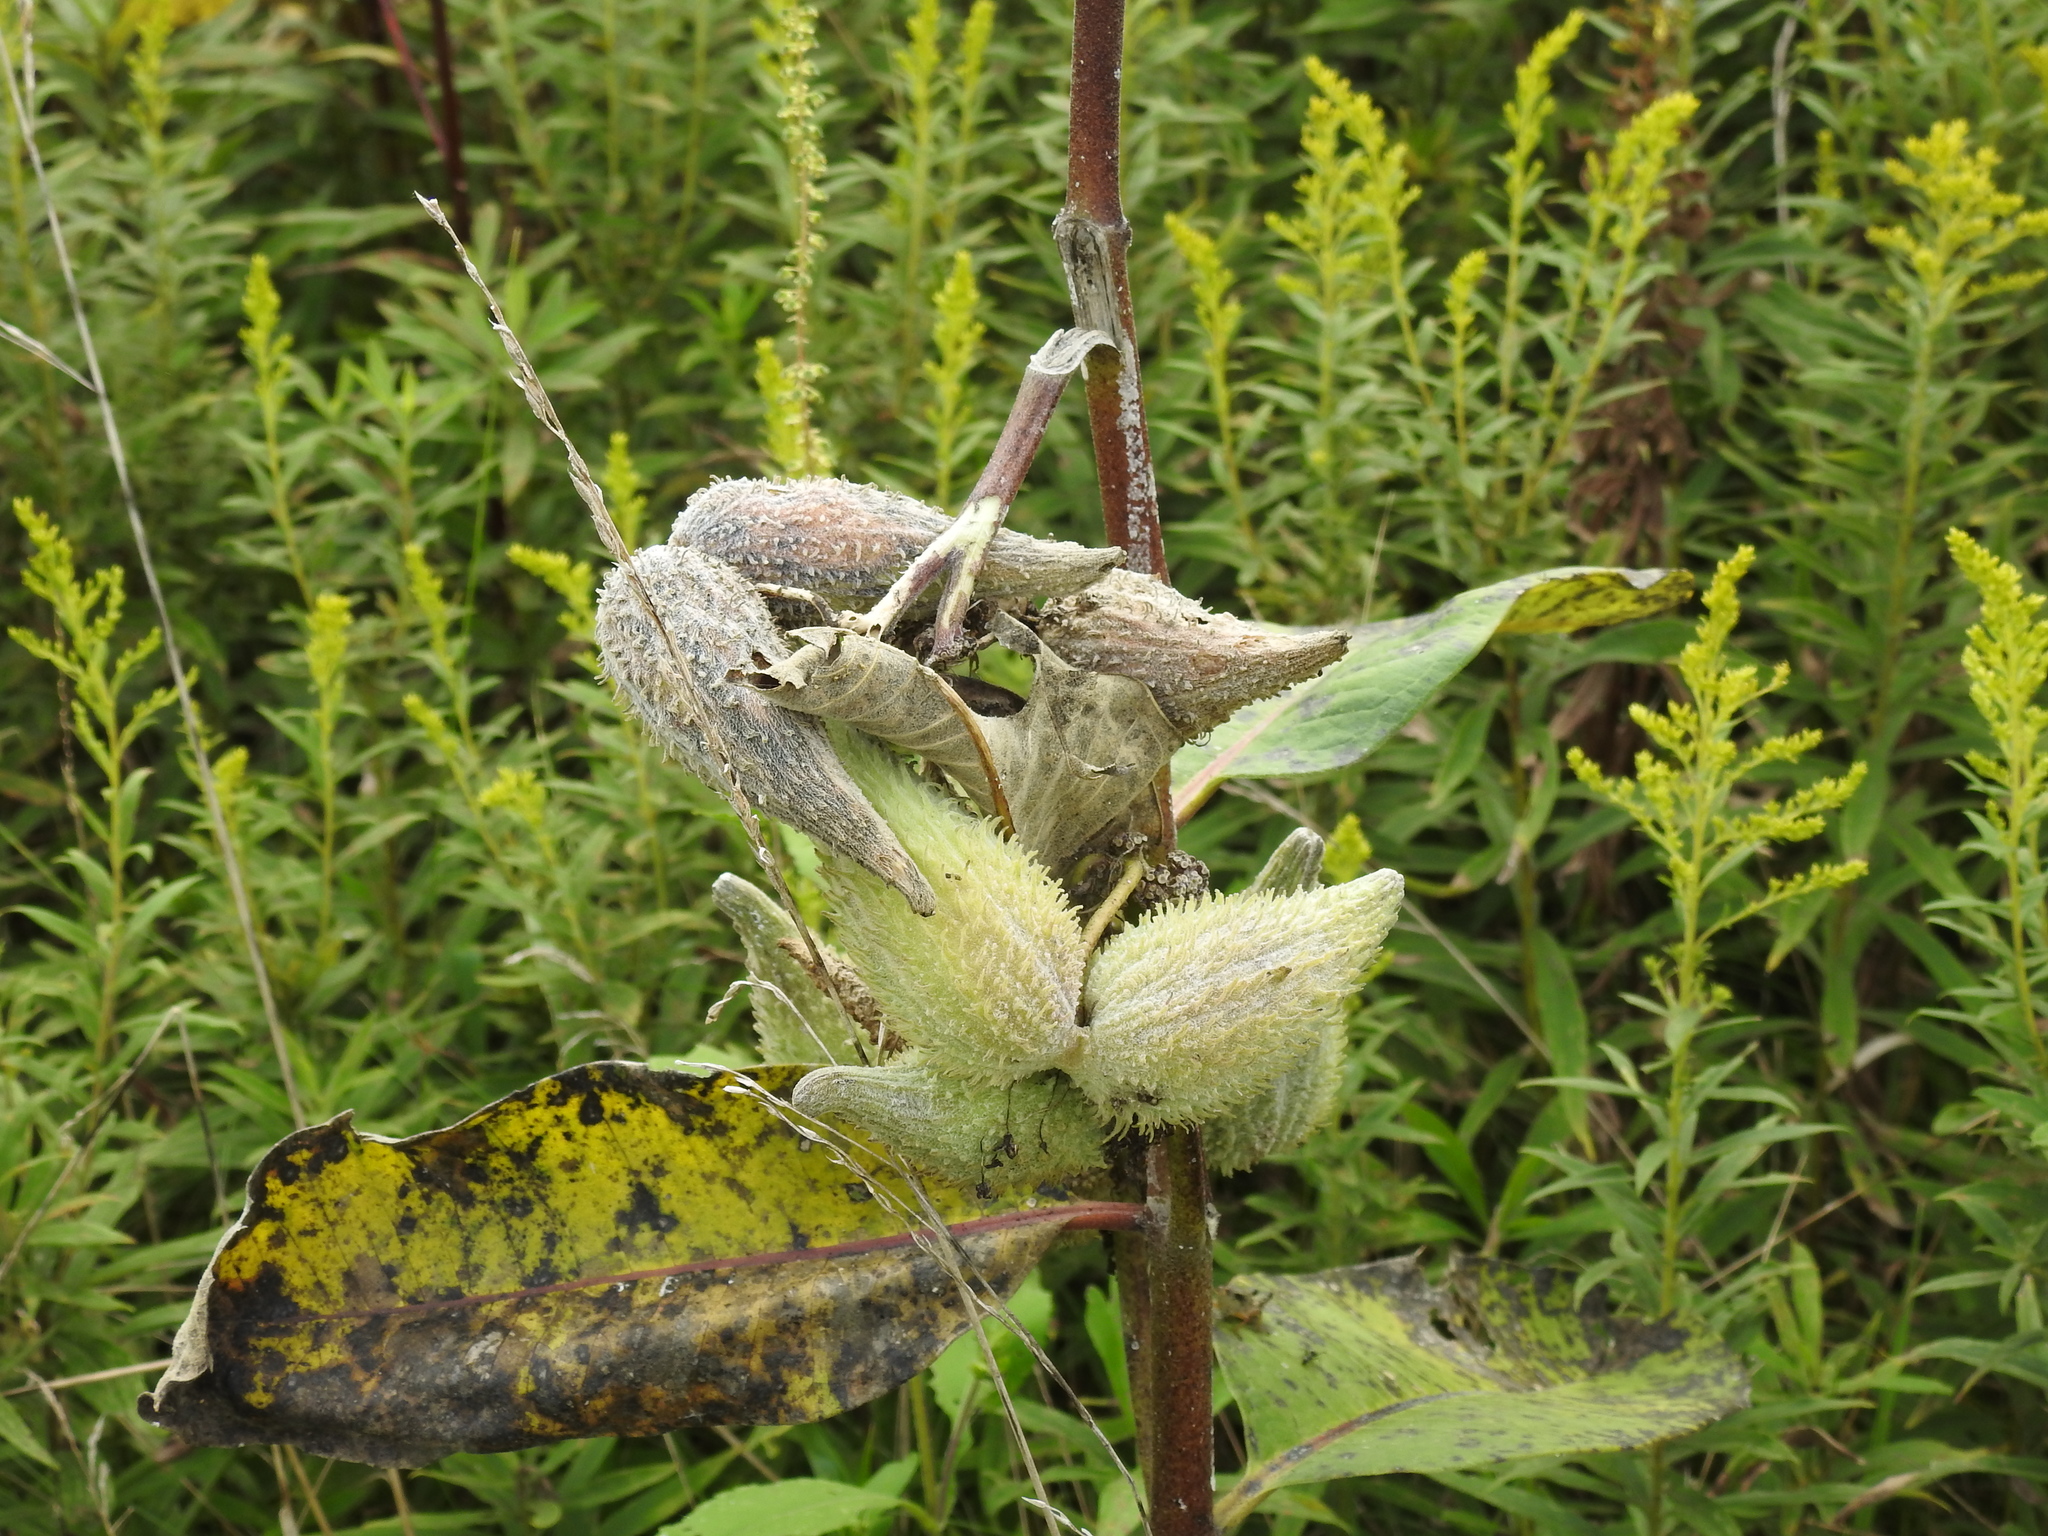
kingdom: Plantae
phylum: Tracheophyta
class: Magnoliopsida
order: Gentianales
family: Apocynaceae
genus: Asclepias
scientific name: Asclepias syriaca
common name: Common milkweed
